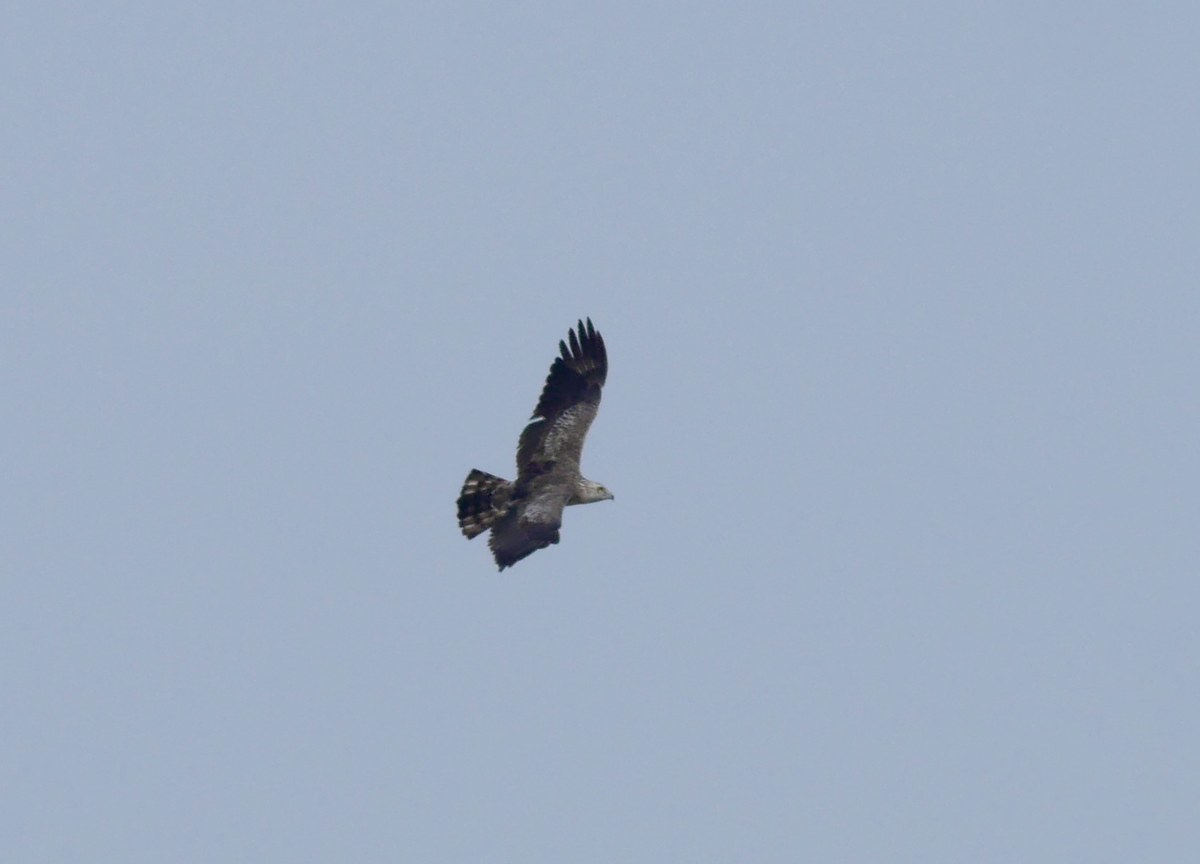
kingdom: Animalia
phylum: Chordata
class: Aves
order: Accipitriformes
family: Accipitridae
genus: Circaetus
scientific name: Circaetus gallicus
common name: Short-toed snake eagle
